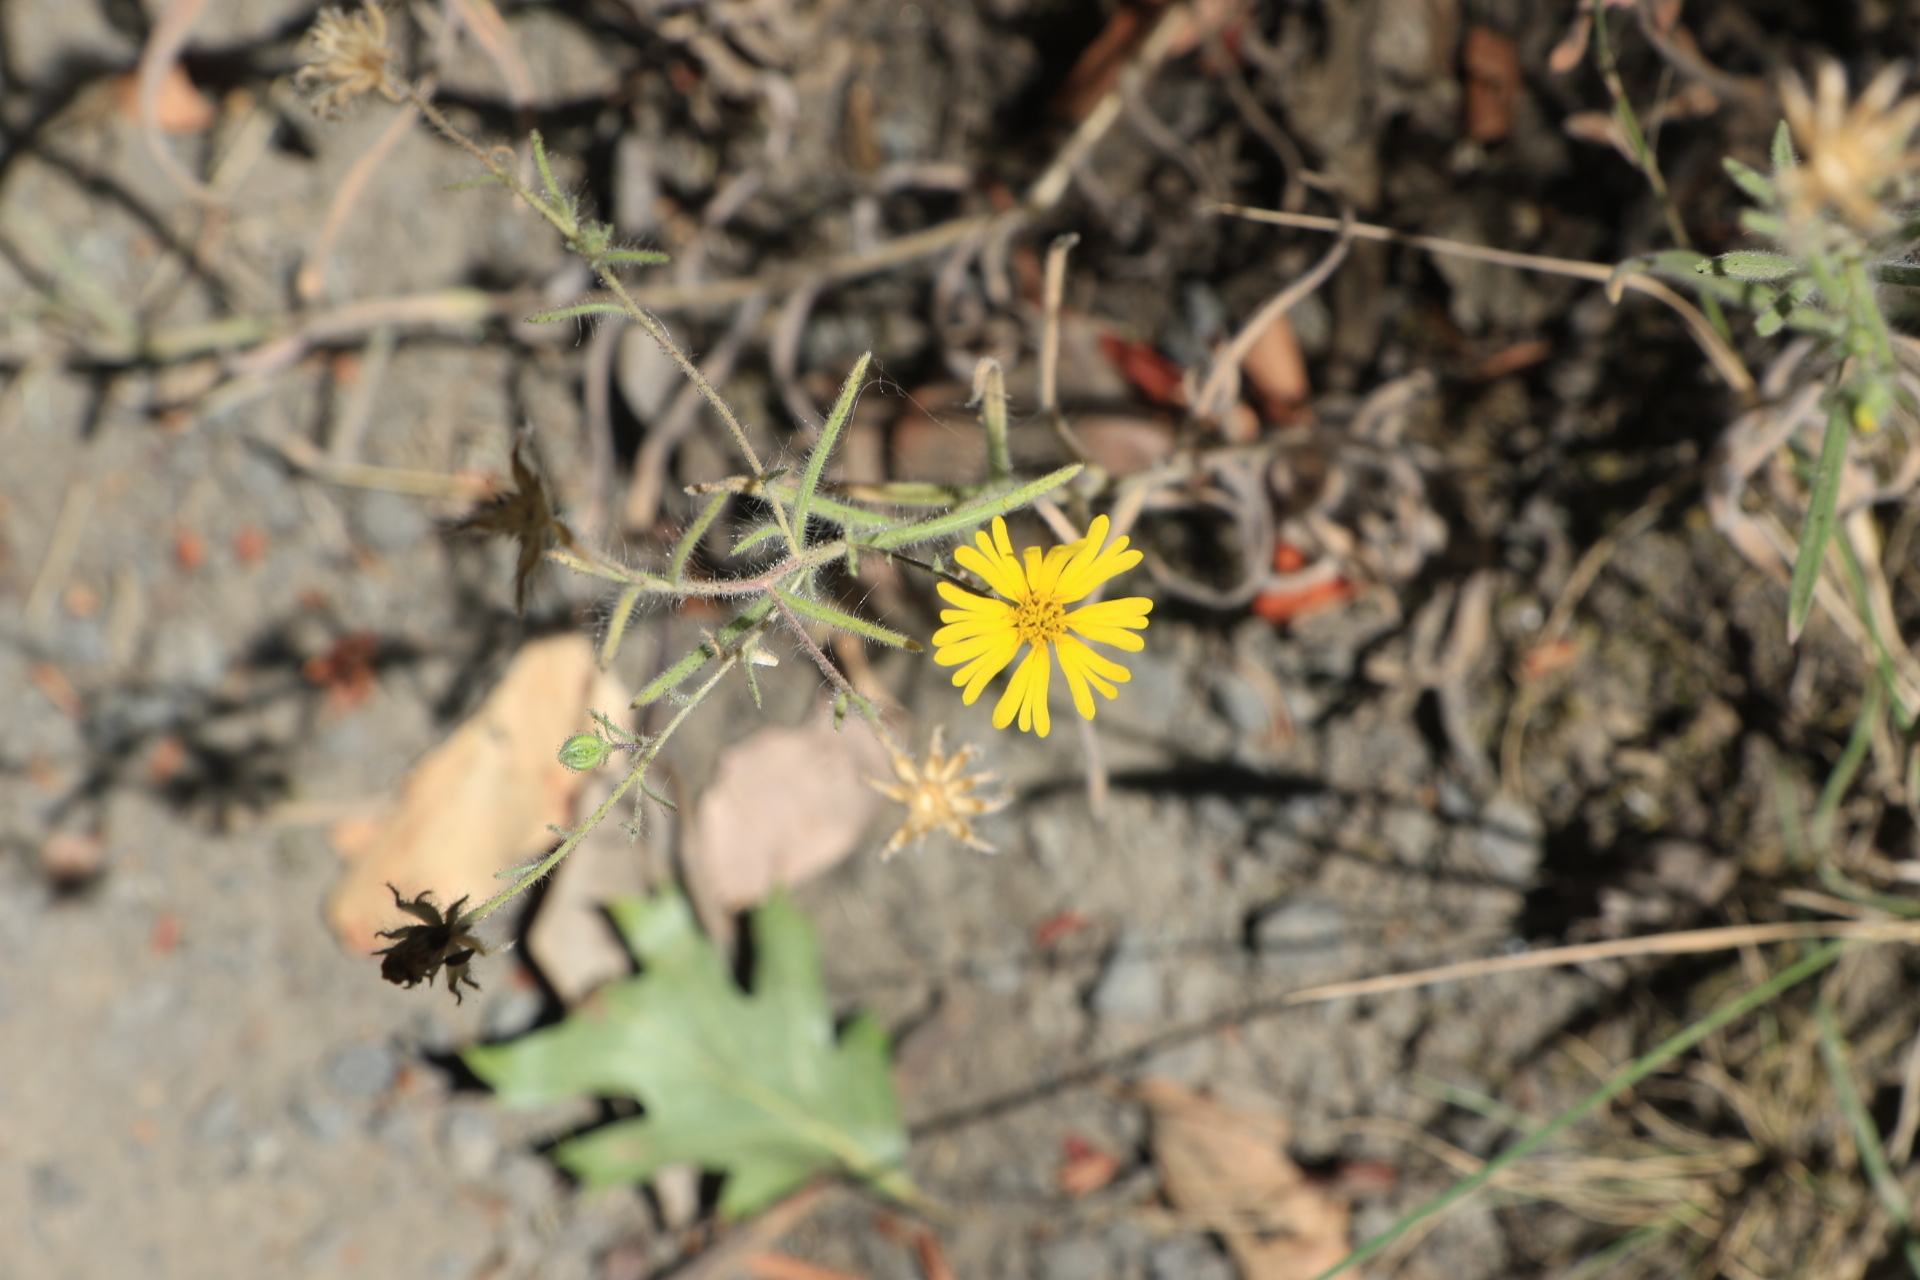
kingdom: Plantae
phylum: Tracheophyta
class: Magnoliopsida
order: Asterales
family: Asteraceae
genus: Madia
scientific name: Madia elegans
